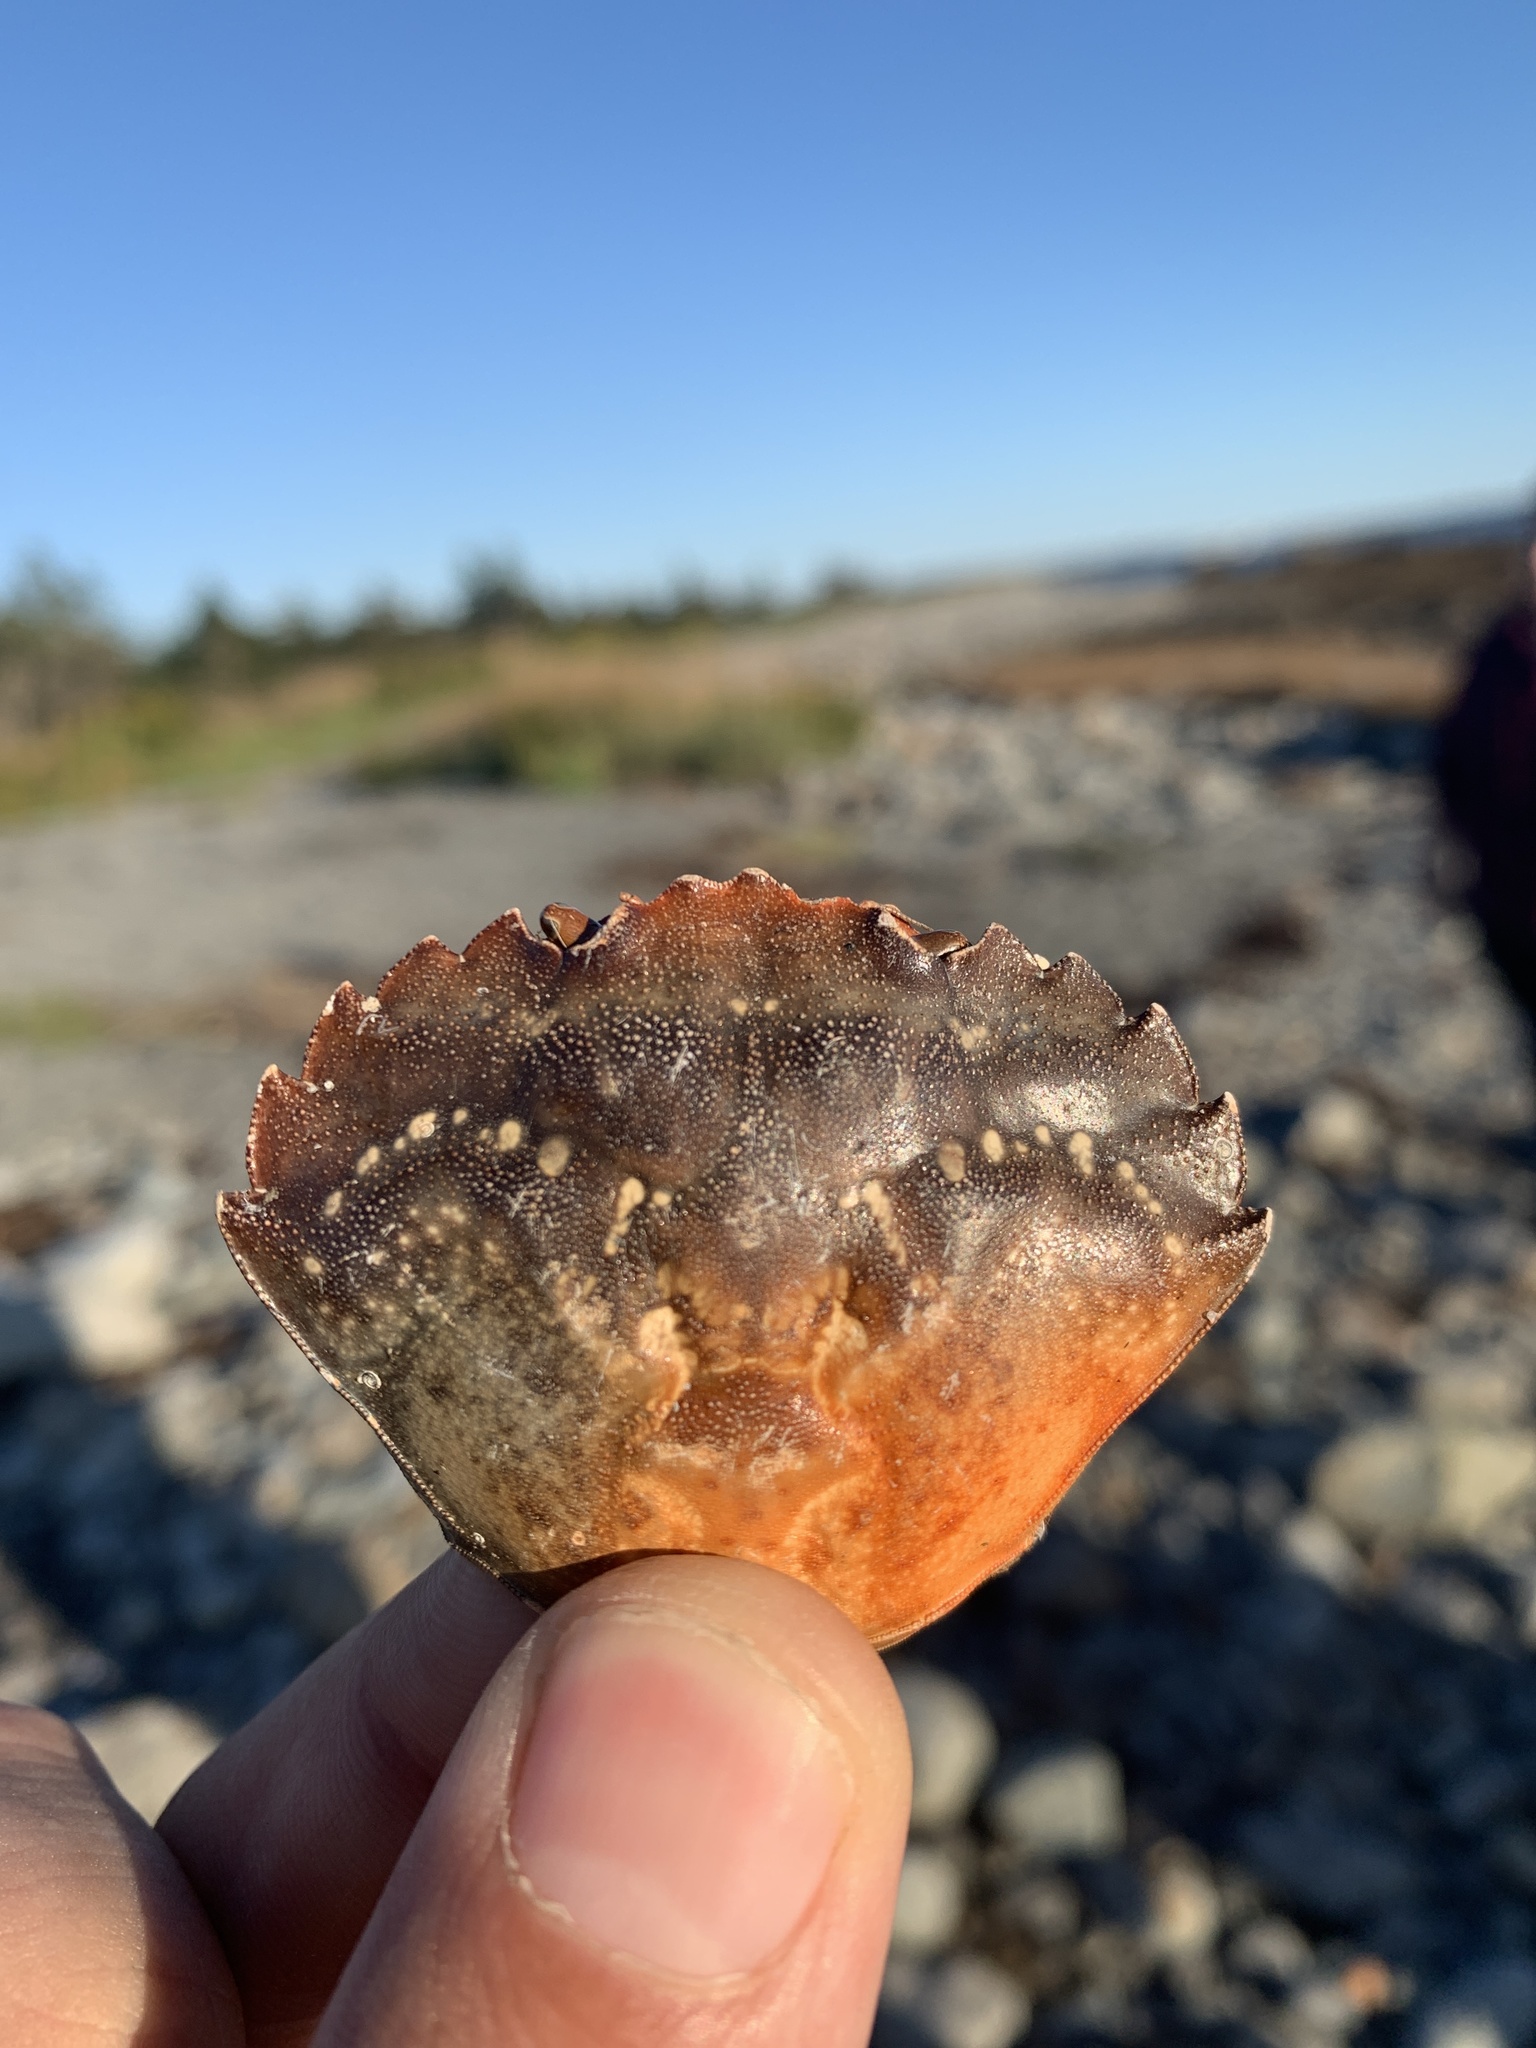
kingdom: Animalia
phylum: Arthropoda
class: Malacostraca
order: Decapoda
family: Carcinidae
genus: Carcinus
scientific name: Carcinus maenas
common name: European green crab
